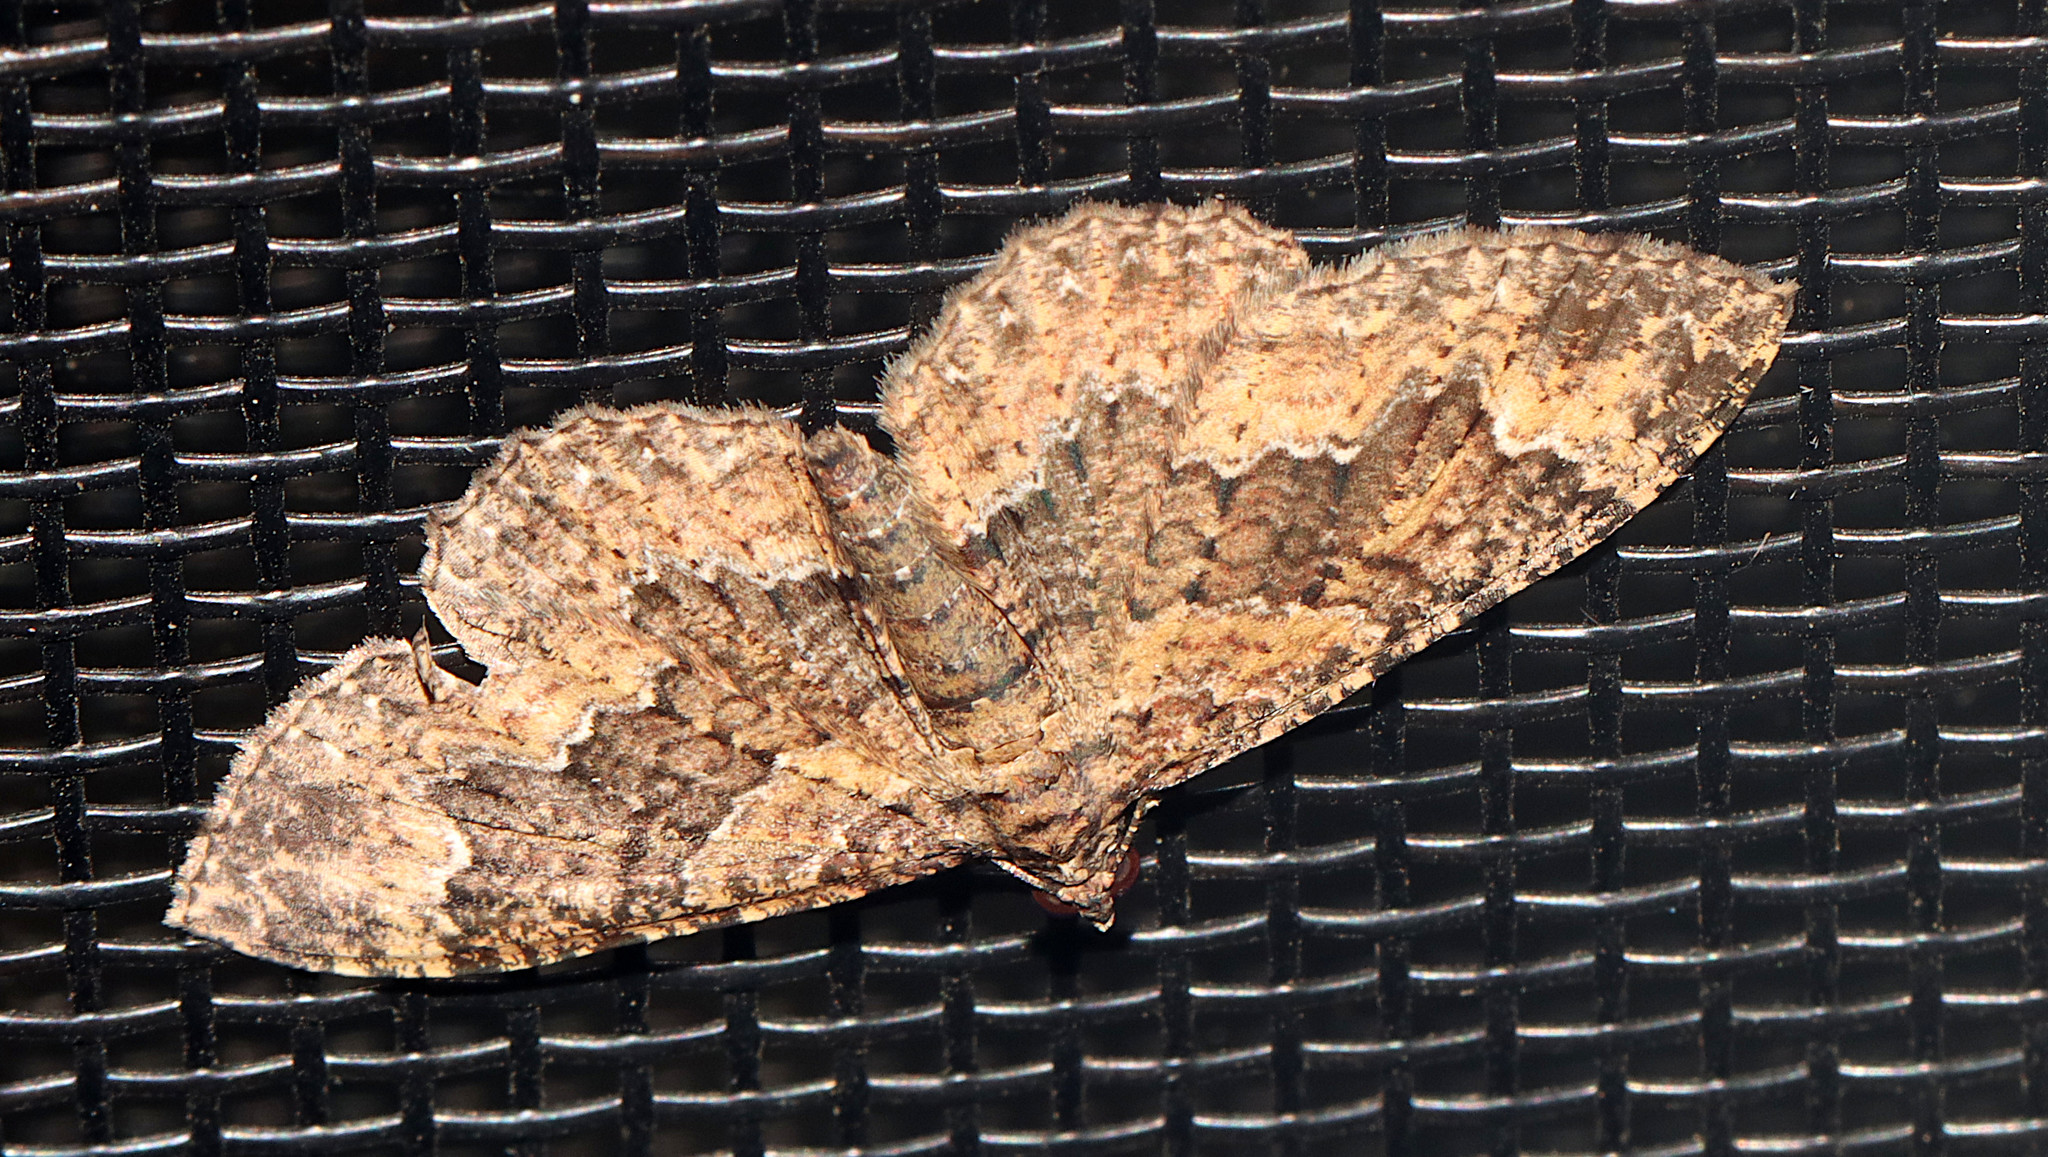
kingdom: Animalia
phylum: Arthropoda
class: Insecta
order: Lepidoptera
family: Geometridae
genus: Disclisioprocta
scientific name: Disclisioprocta stellata
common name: Somber carpet
